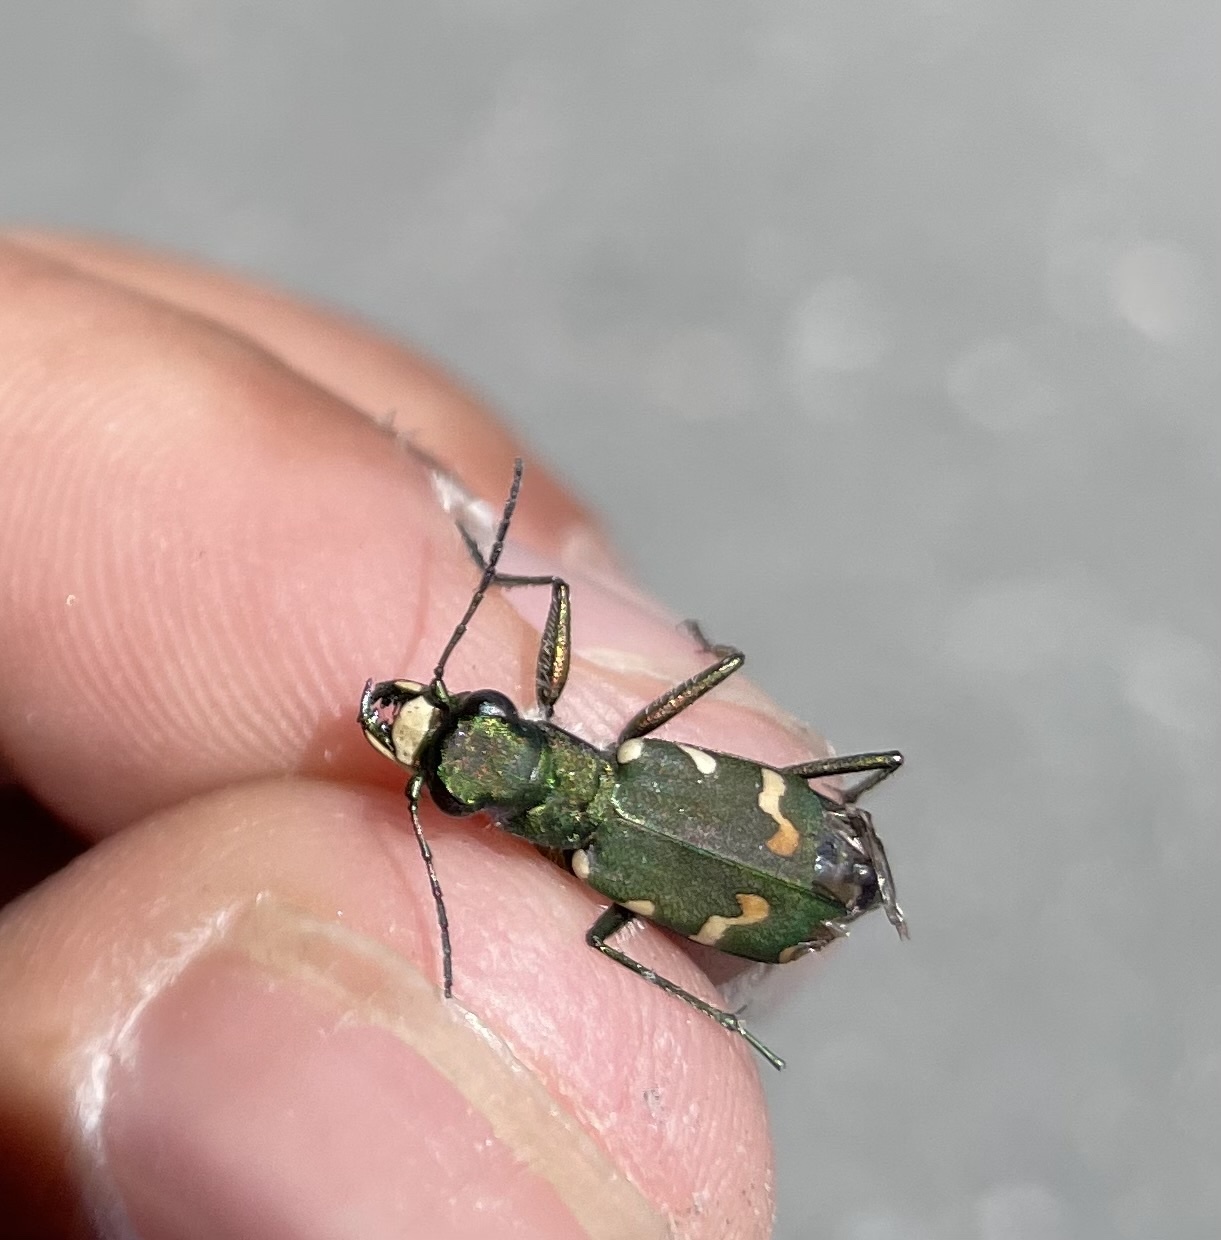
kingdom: Animalia
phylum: Arthropoda
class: Insecta
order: Coleoptera
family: Carabidae
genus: Cicindela
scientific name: Cicindela gallica
